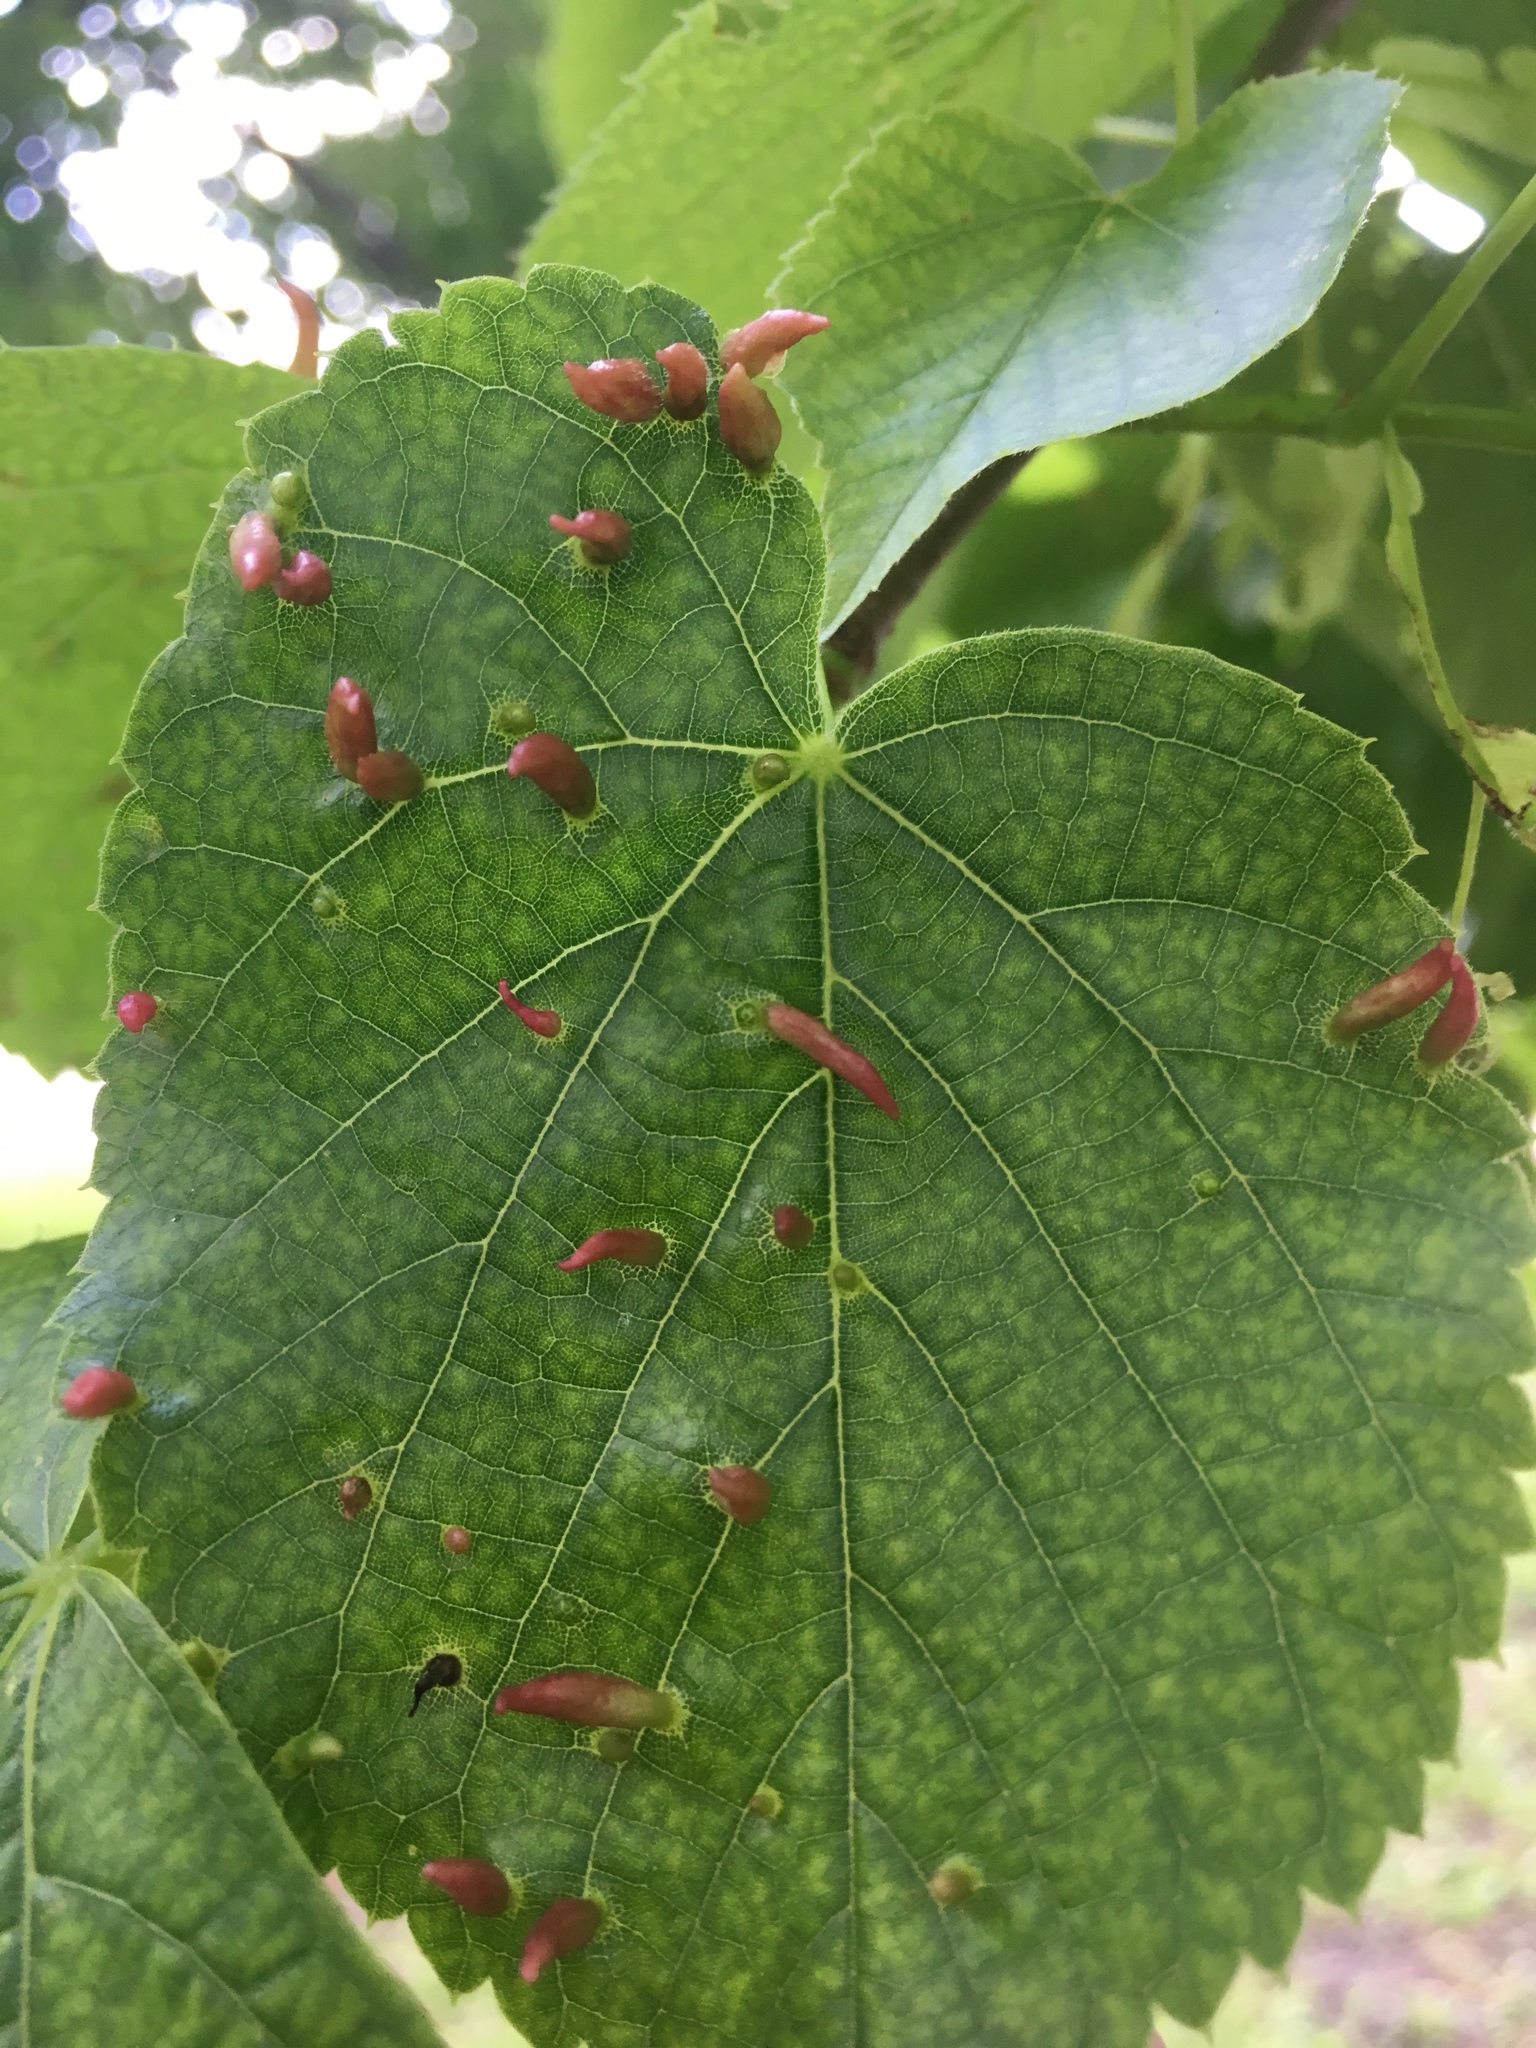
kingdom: Animalia
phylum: Arthropoda
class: Arachnida
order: Trombidiformes
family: Eriophyidae
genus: Eriophyes
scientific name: Eriophyes tiliae
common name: Red nail gall mite
